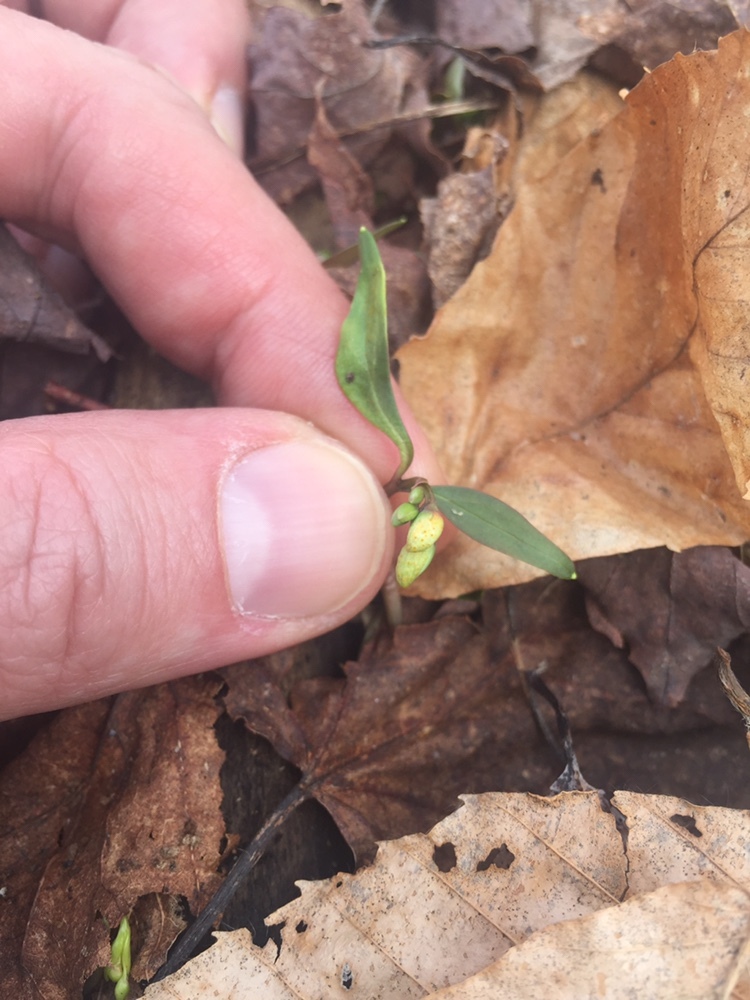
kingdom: Plantae
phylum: Tracheophyta
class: Magnoliopsida
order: Caryophyllales
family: Montiaceae
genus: Claytonia
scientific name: Claytonia caroliniana
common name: Carolina spring beauty
